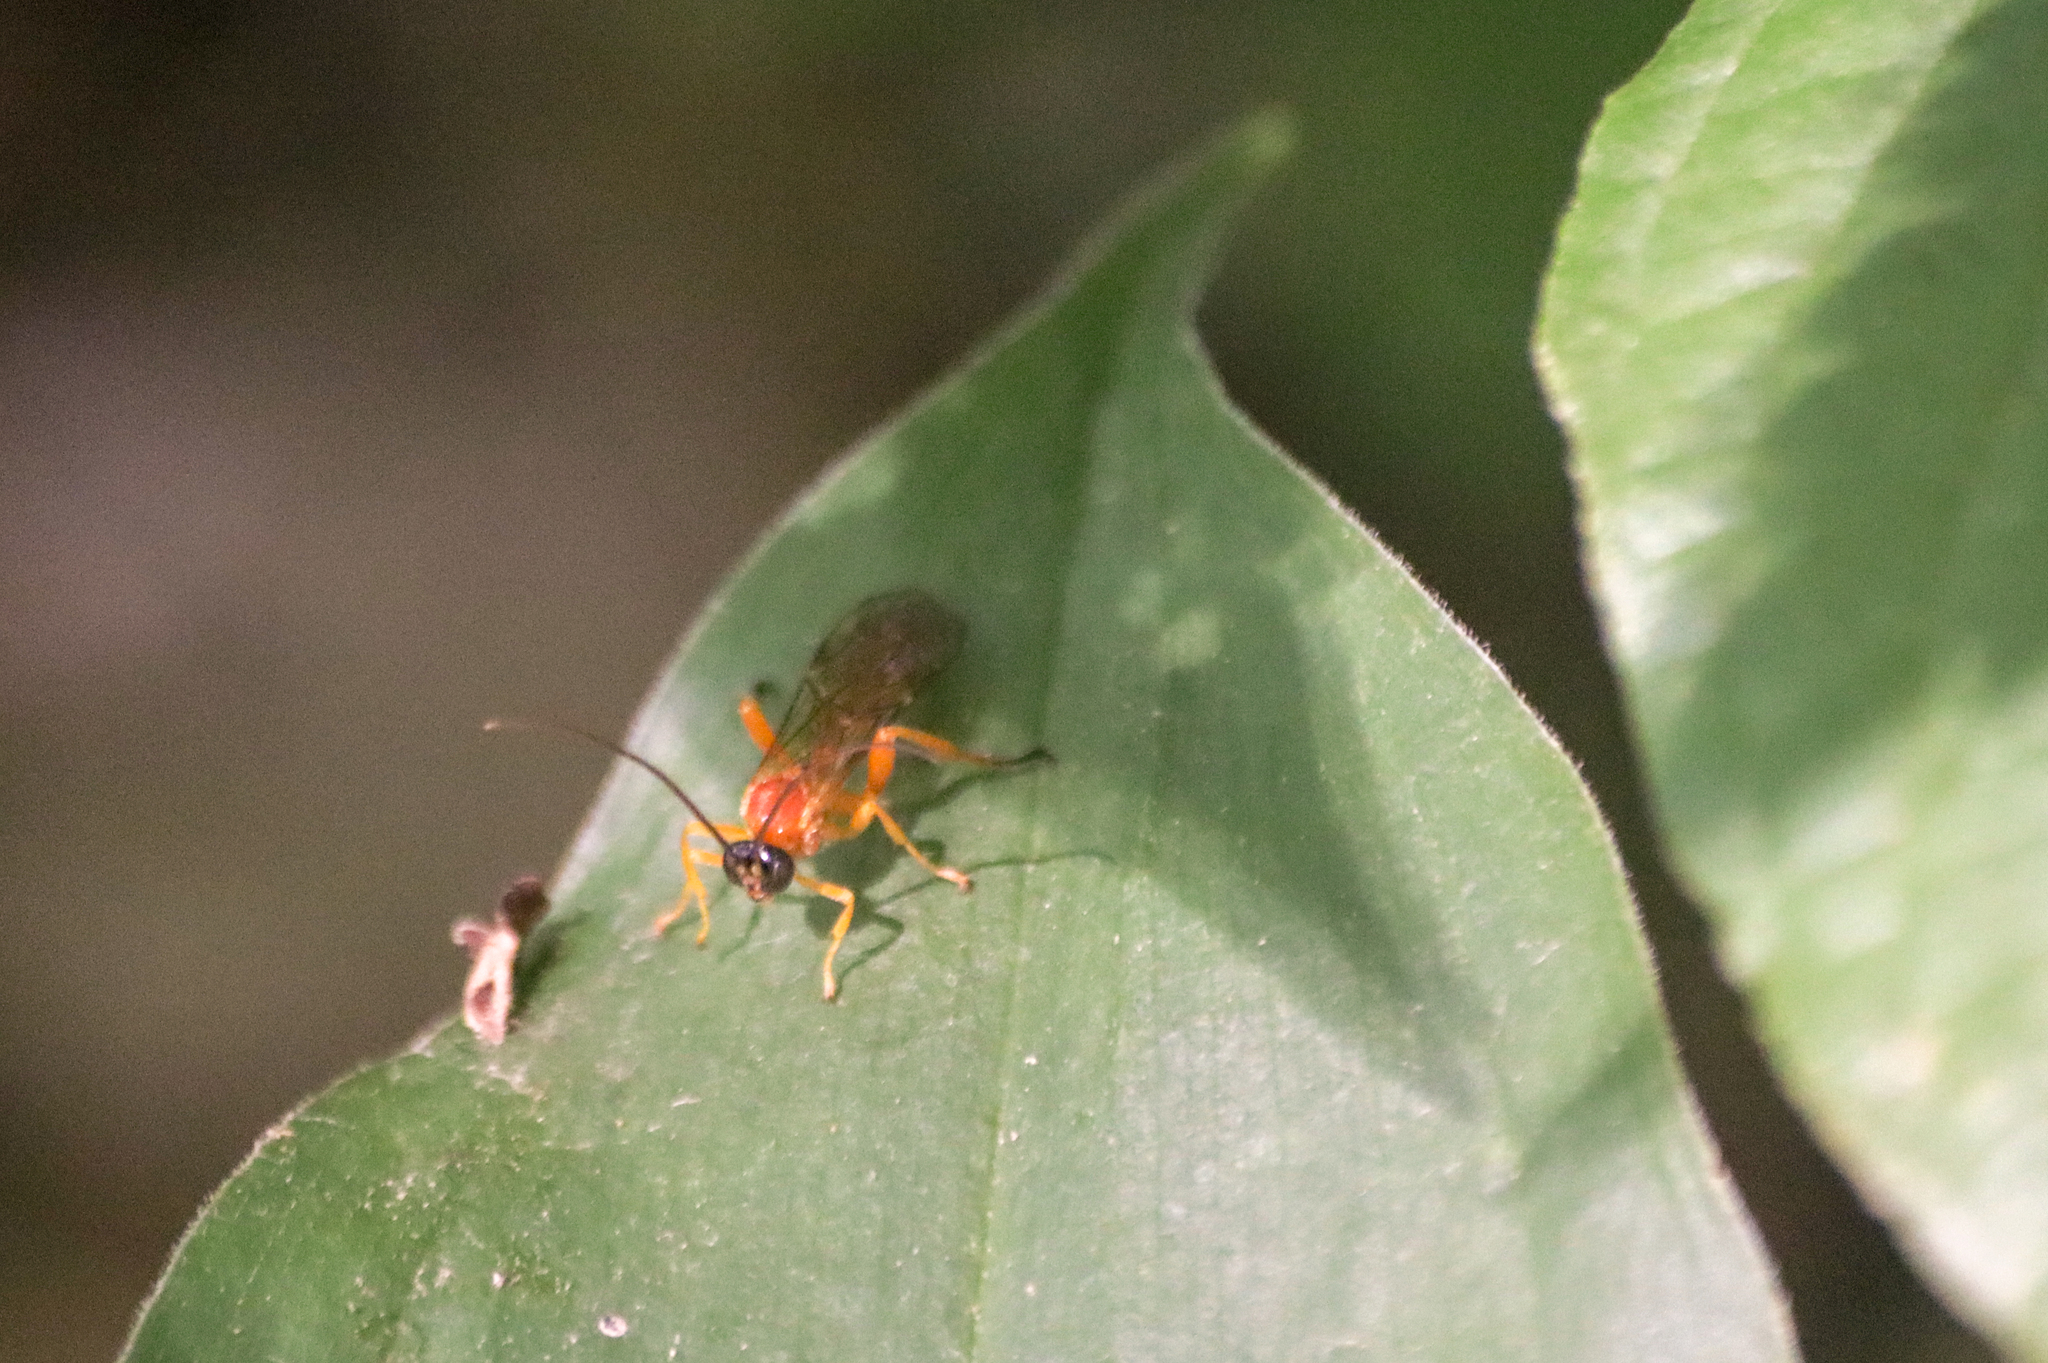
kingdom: Animalia
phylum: Arthropoda
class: Insecta
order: Hymenoptera
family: Ichneumonidae
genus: Theronia
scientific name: Theronia hilaris
